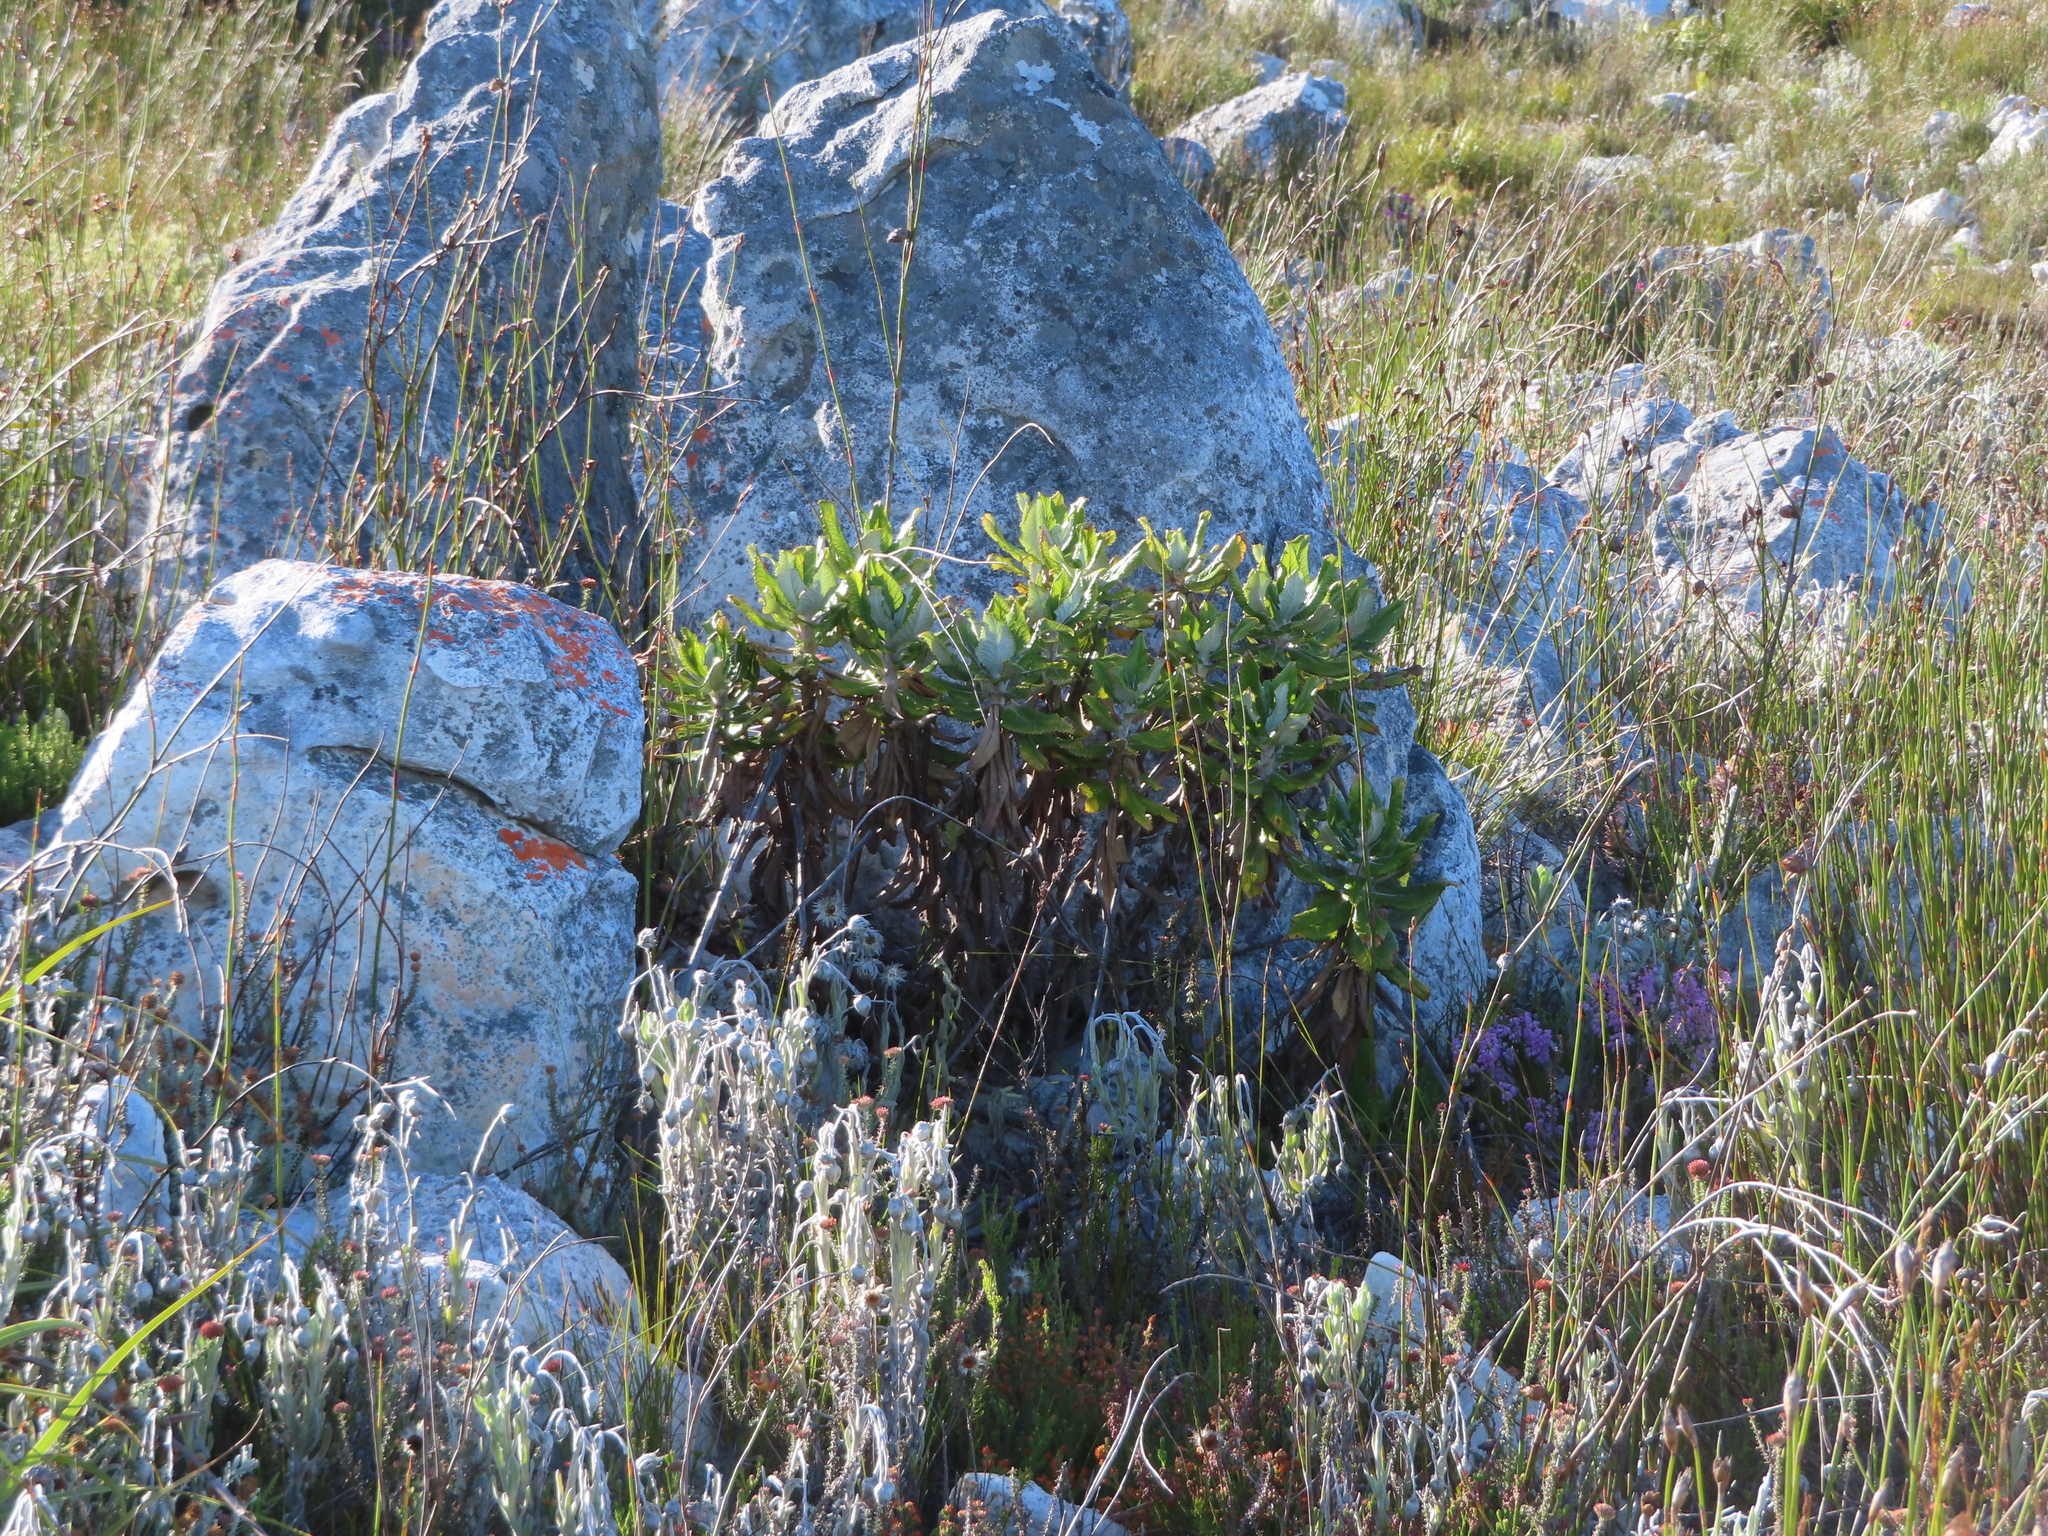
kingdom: Plantae
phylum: Tracheophyta
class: Magnoliopsida
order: Apiales
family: Apiaceae
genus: Hermas
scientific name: Hermas villosa
